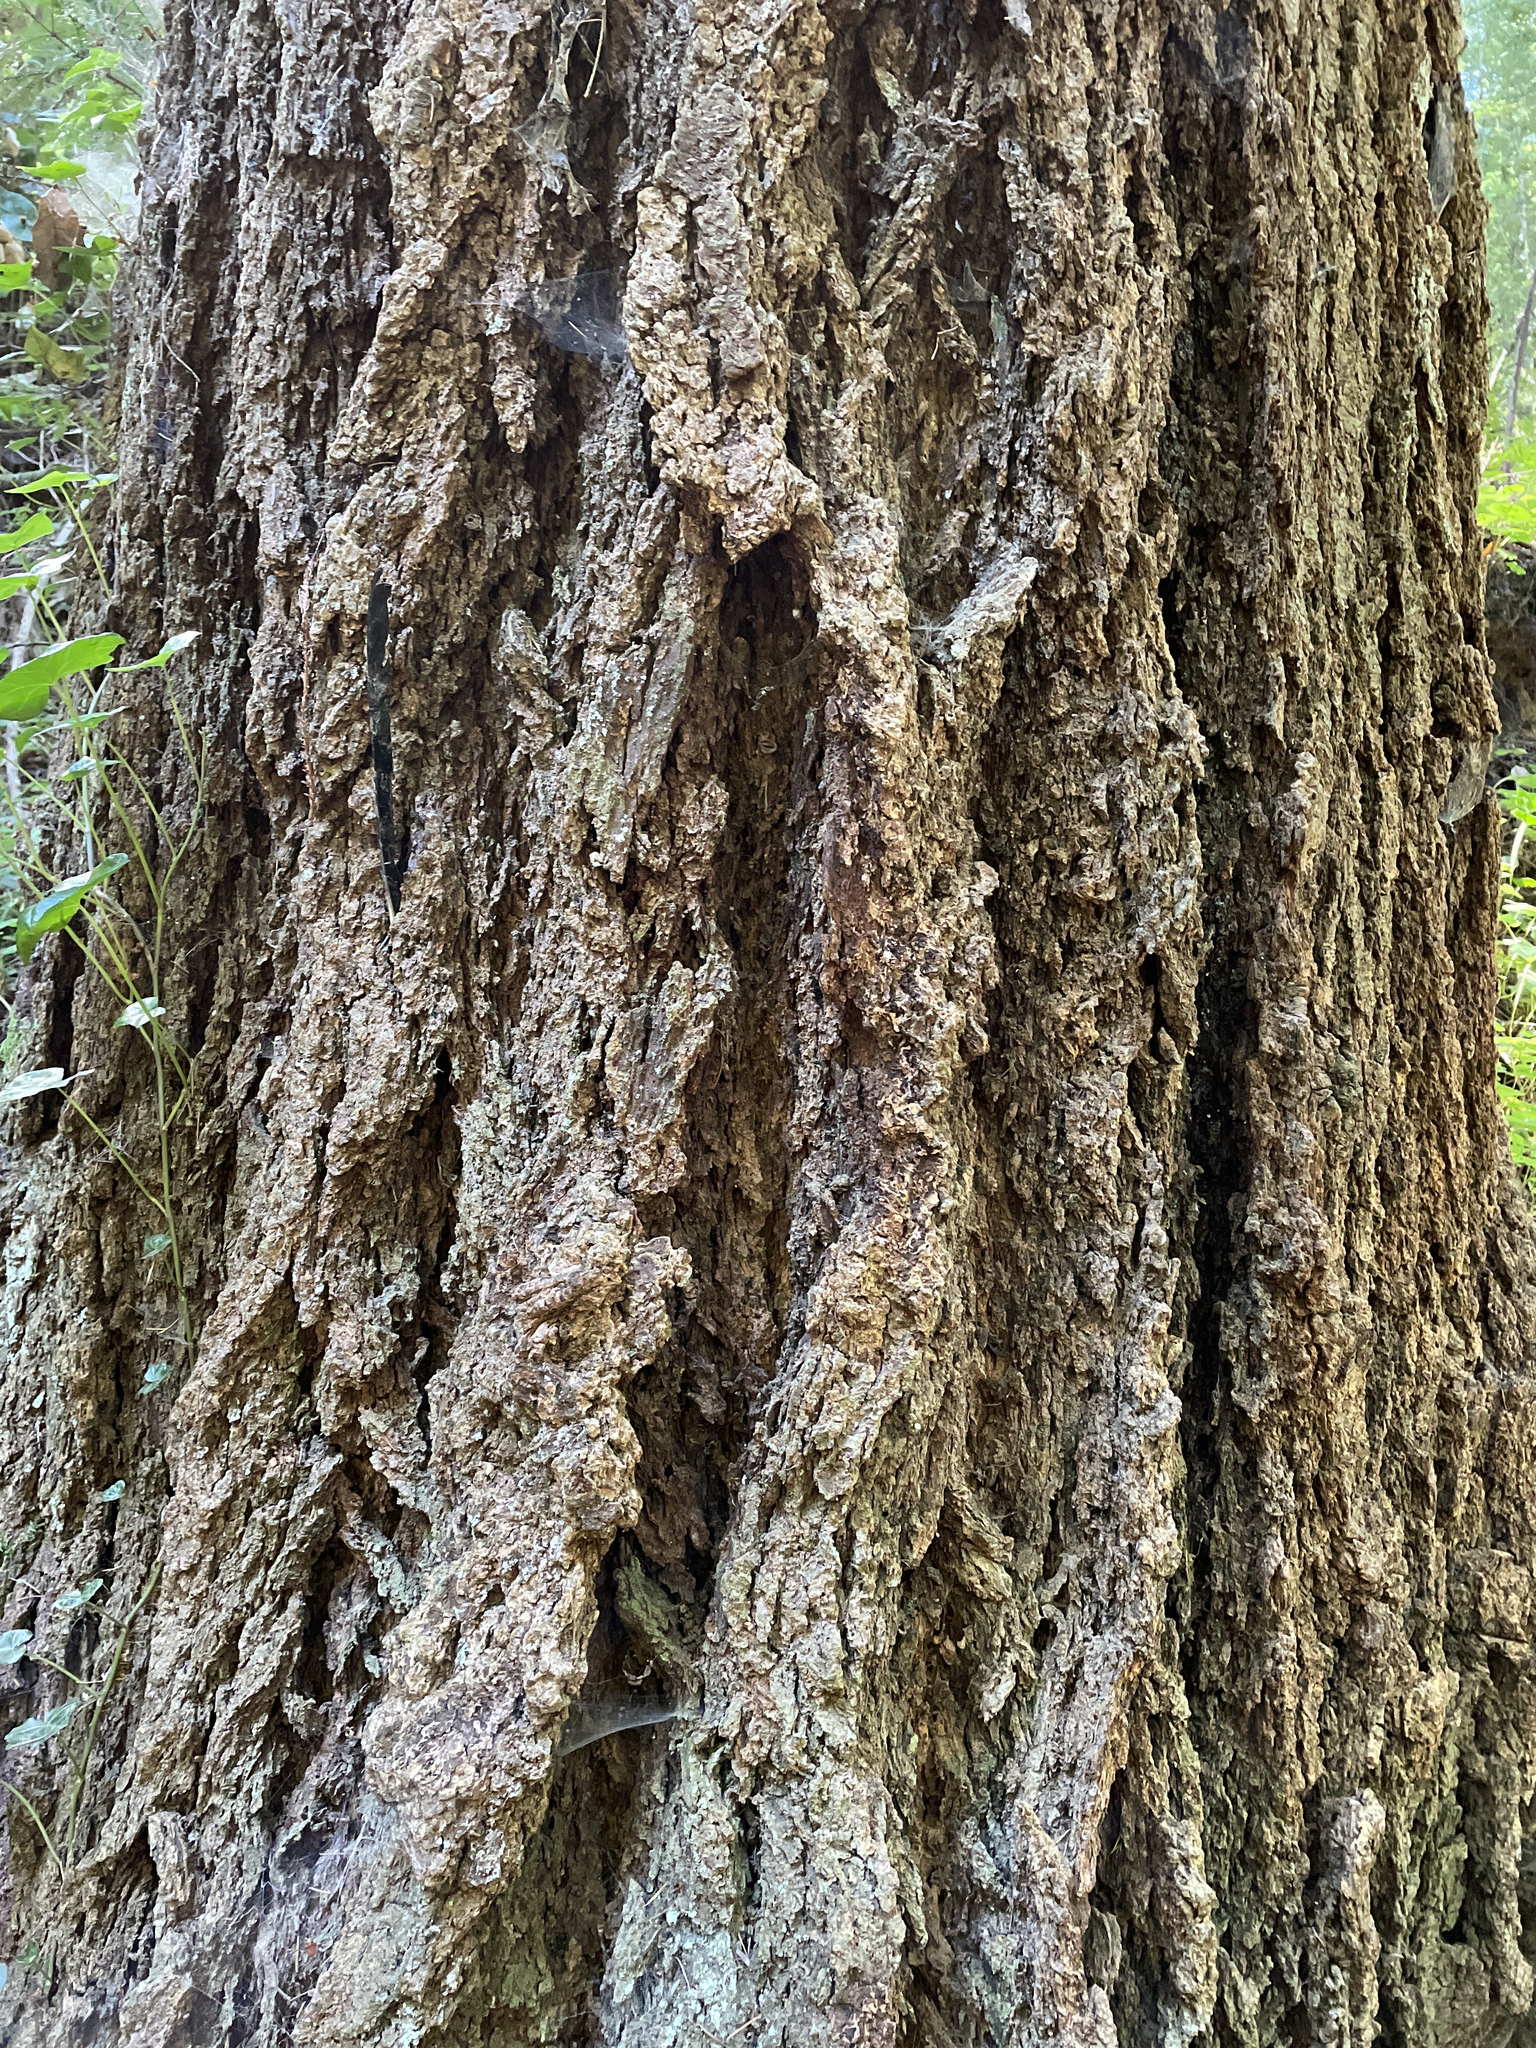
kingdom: Plantae
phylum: Tracheophyta
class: Pinopsida
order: Pinales
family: Pinaceae
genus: Pseudotsuga
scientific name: Pseudotsuga menziesii
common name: Douglas fir
